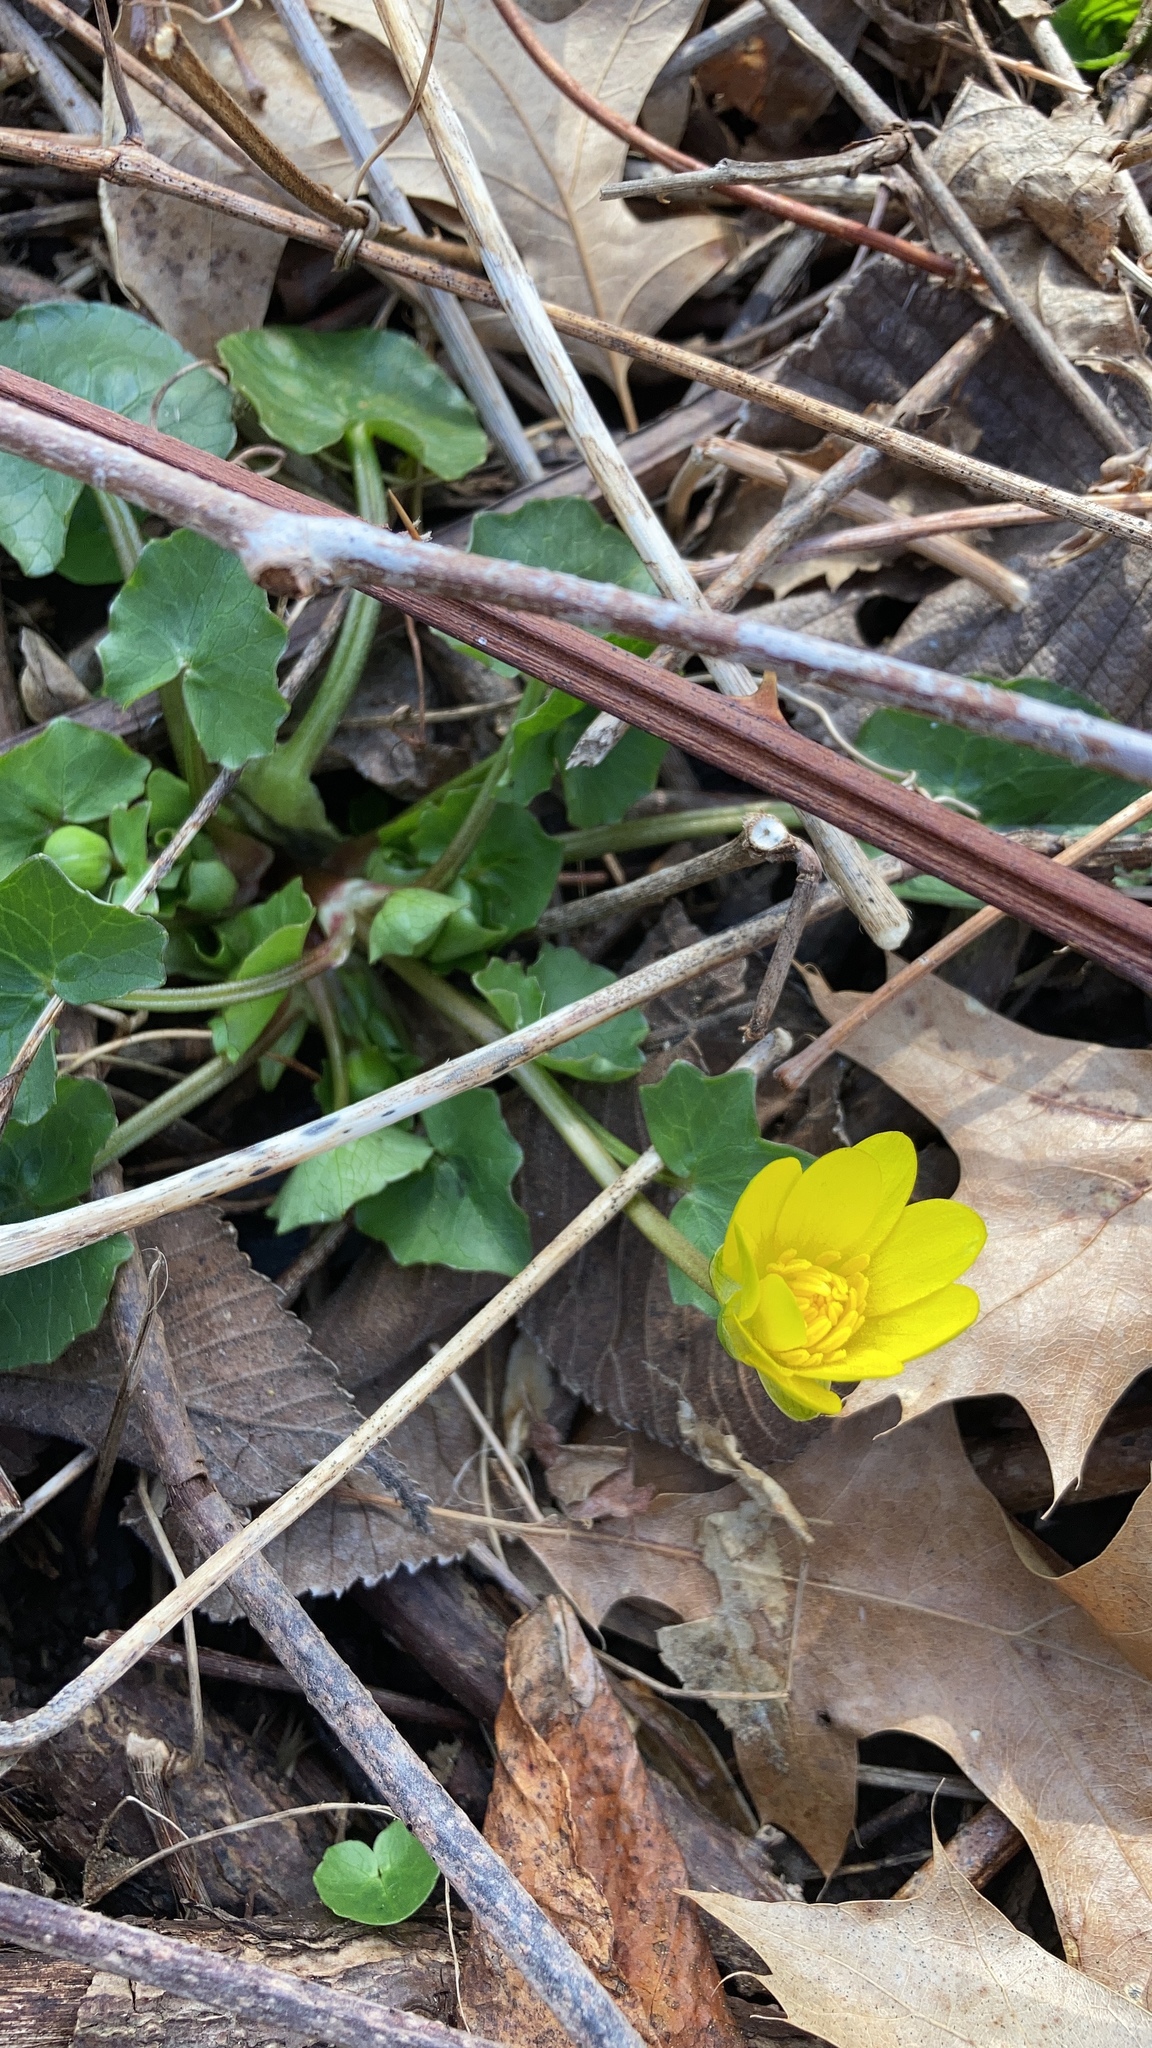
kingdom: Plantae
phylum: Tracheophyta
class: Magnoliopsida
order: Ranunculales
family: Ranunculaceae
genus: Ficaria
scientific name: Ficaria verna
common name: Lesser celandine
